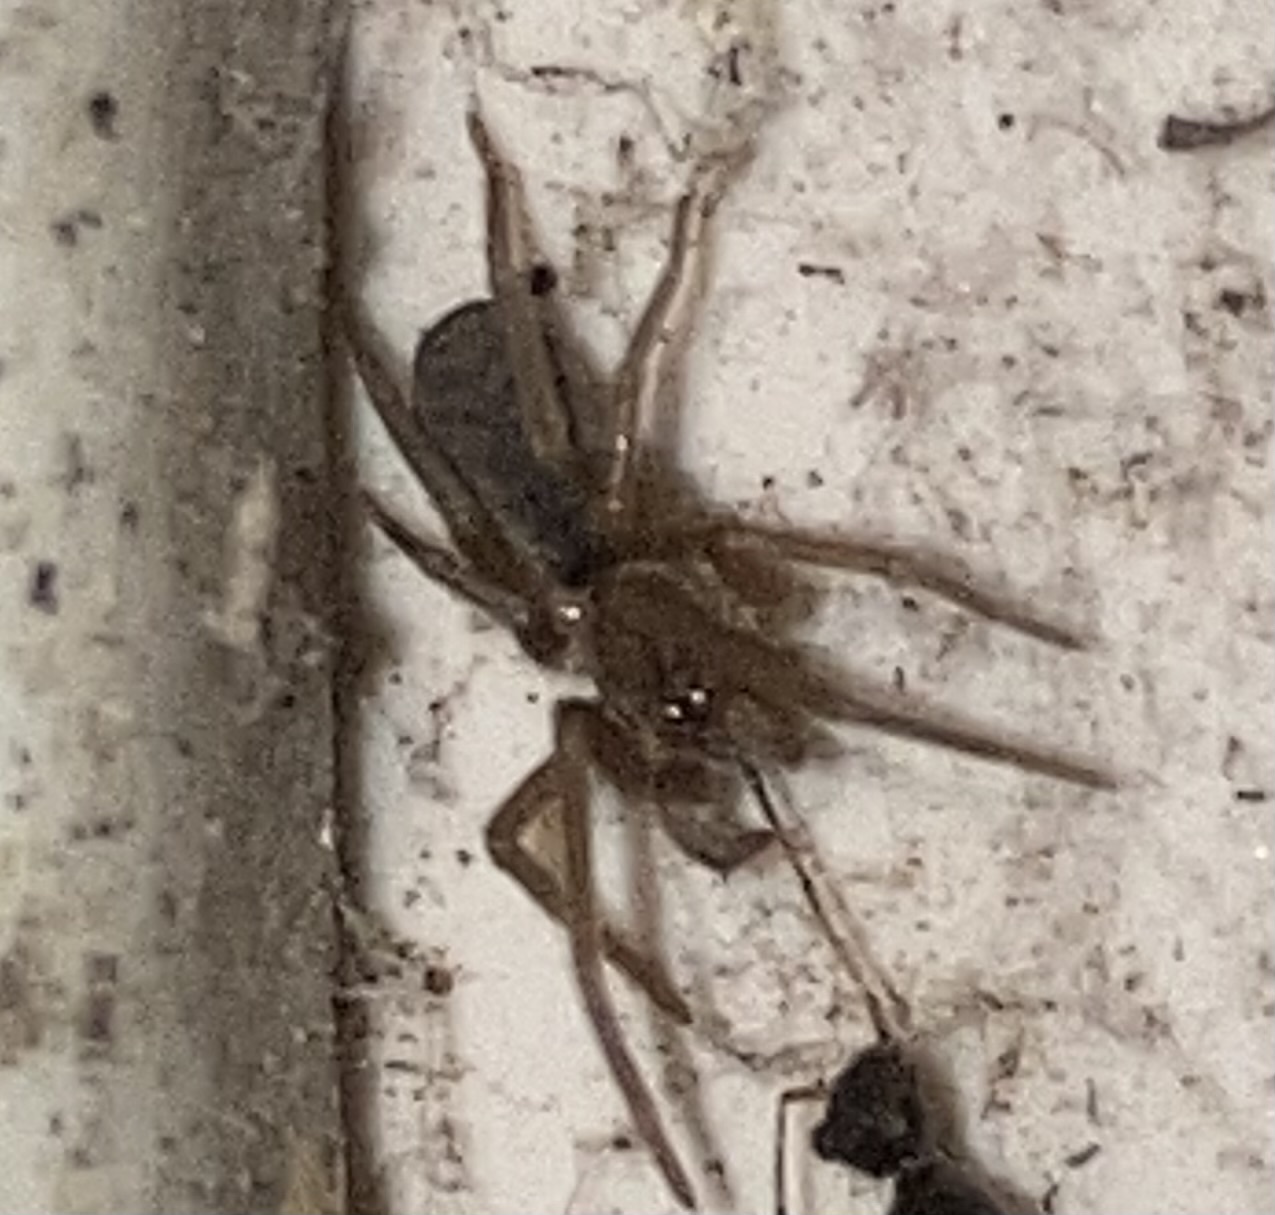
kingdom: Animalia
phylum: Arthropoda
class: Arachnida
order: Araneae
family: Filistatidae
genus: Misionella
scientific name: Misionella mendensis
